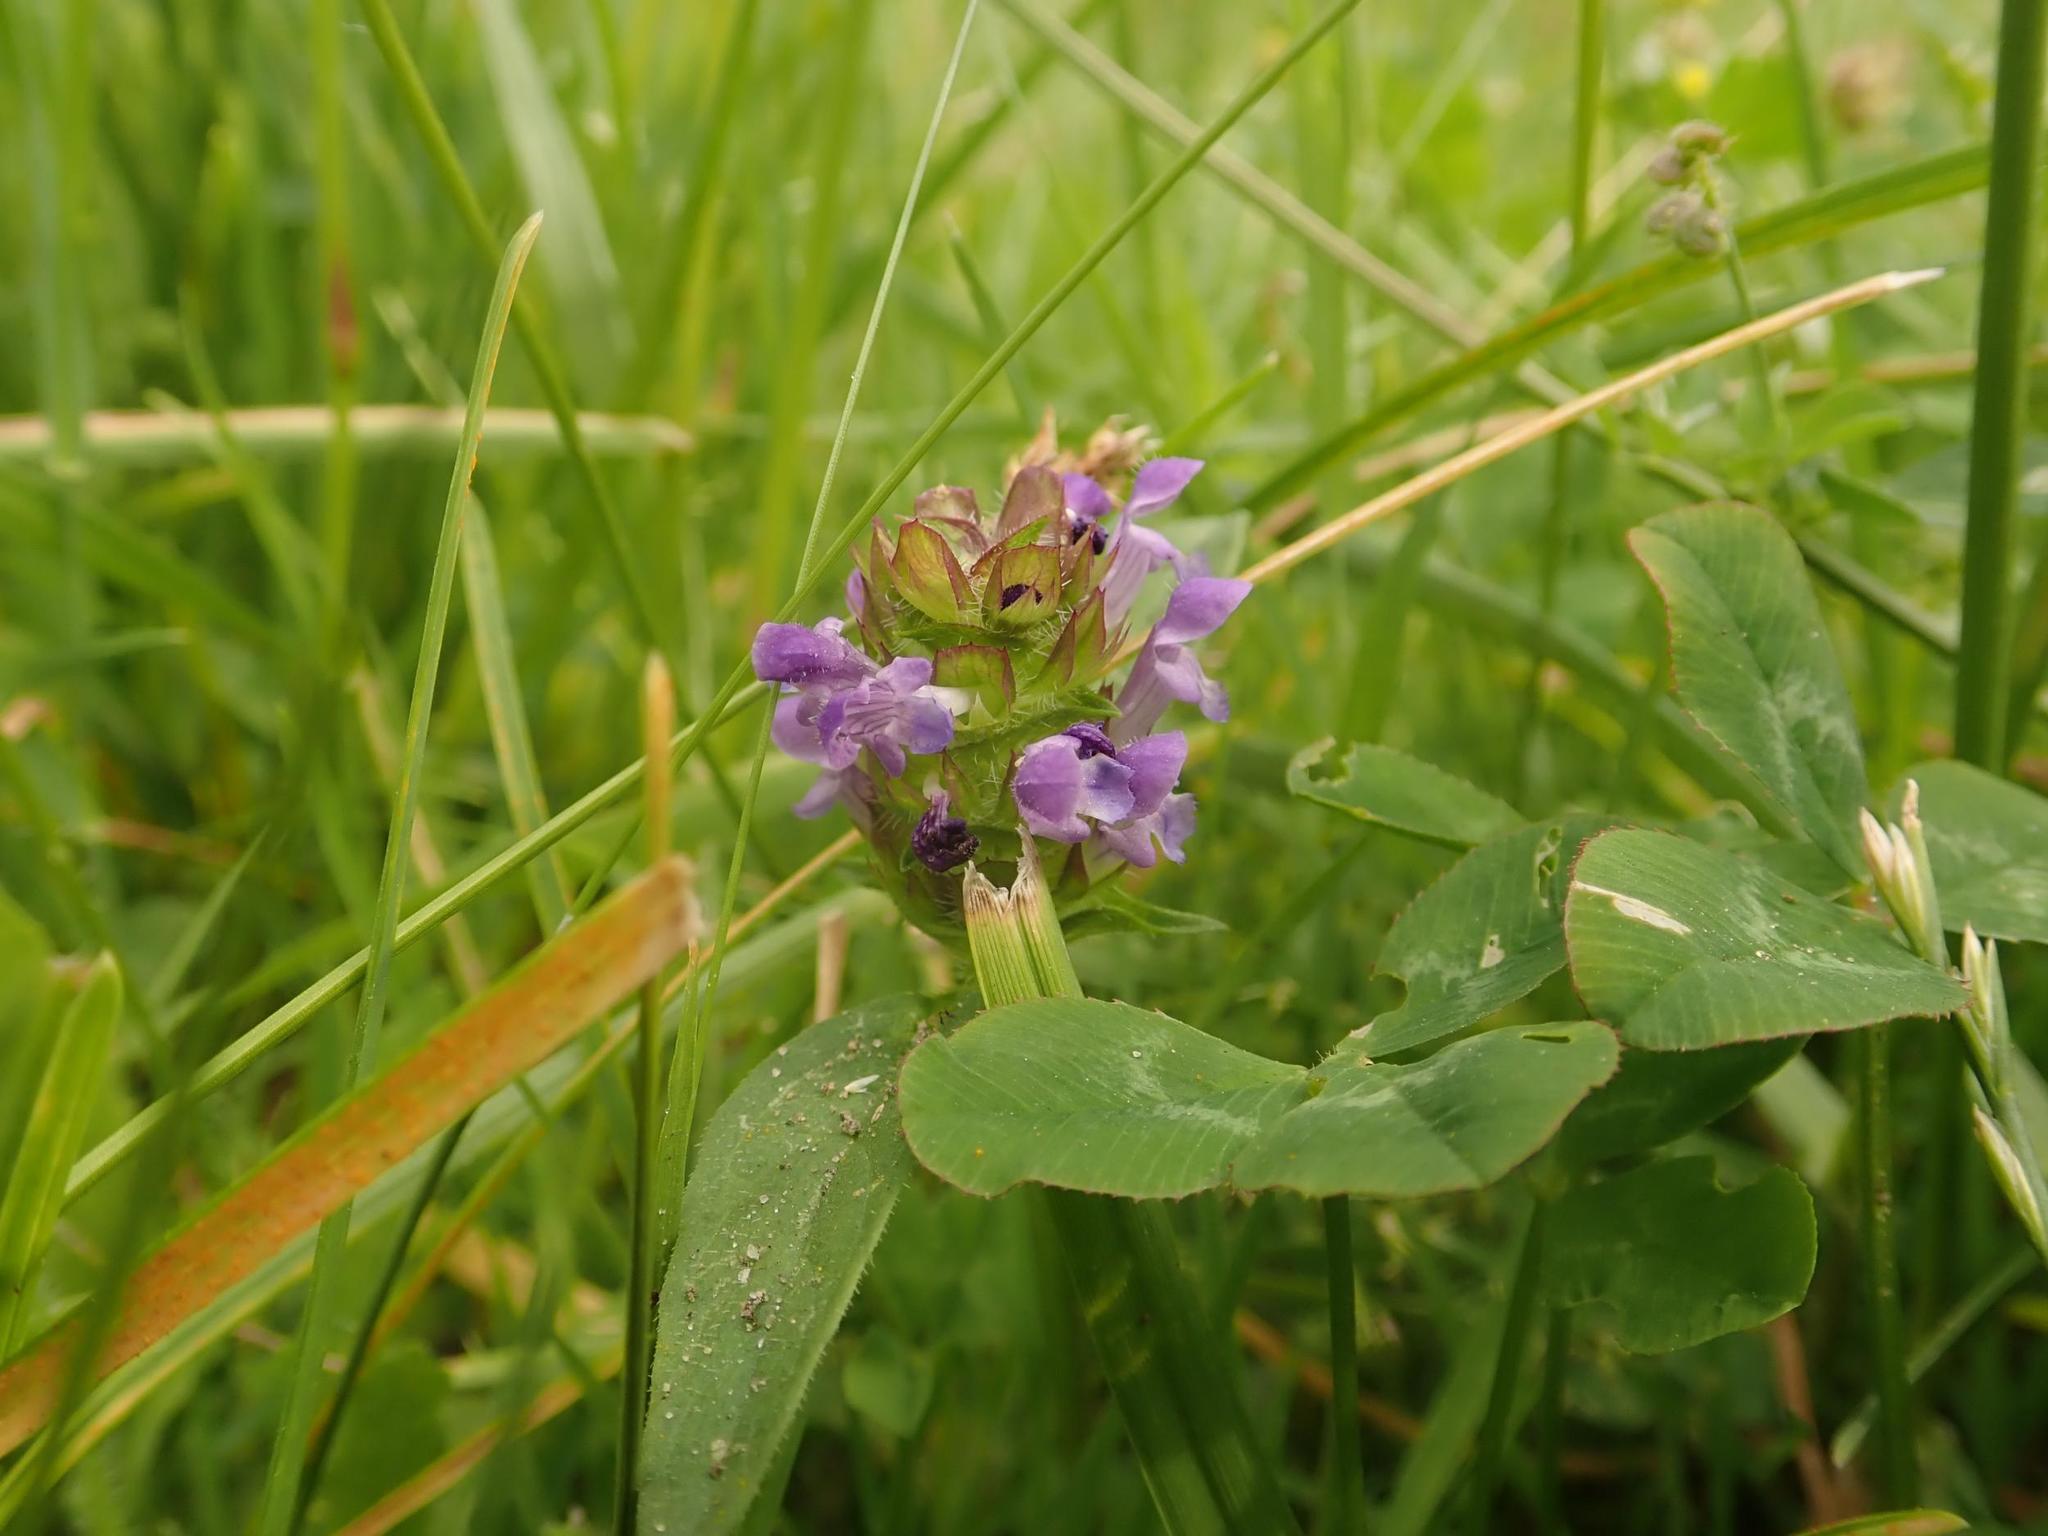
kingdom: Plantae
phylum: Tracheophyta
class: Magnoliopsida
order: Lamiales
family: Lamiaceae
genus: Prunella
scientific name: Prunella vulgaris
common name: Heal-all
